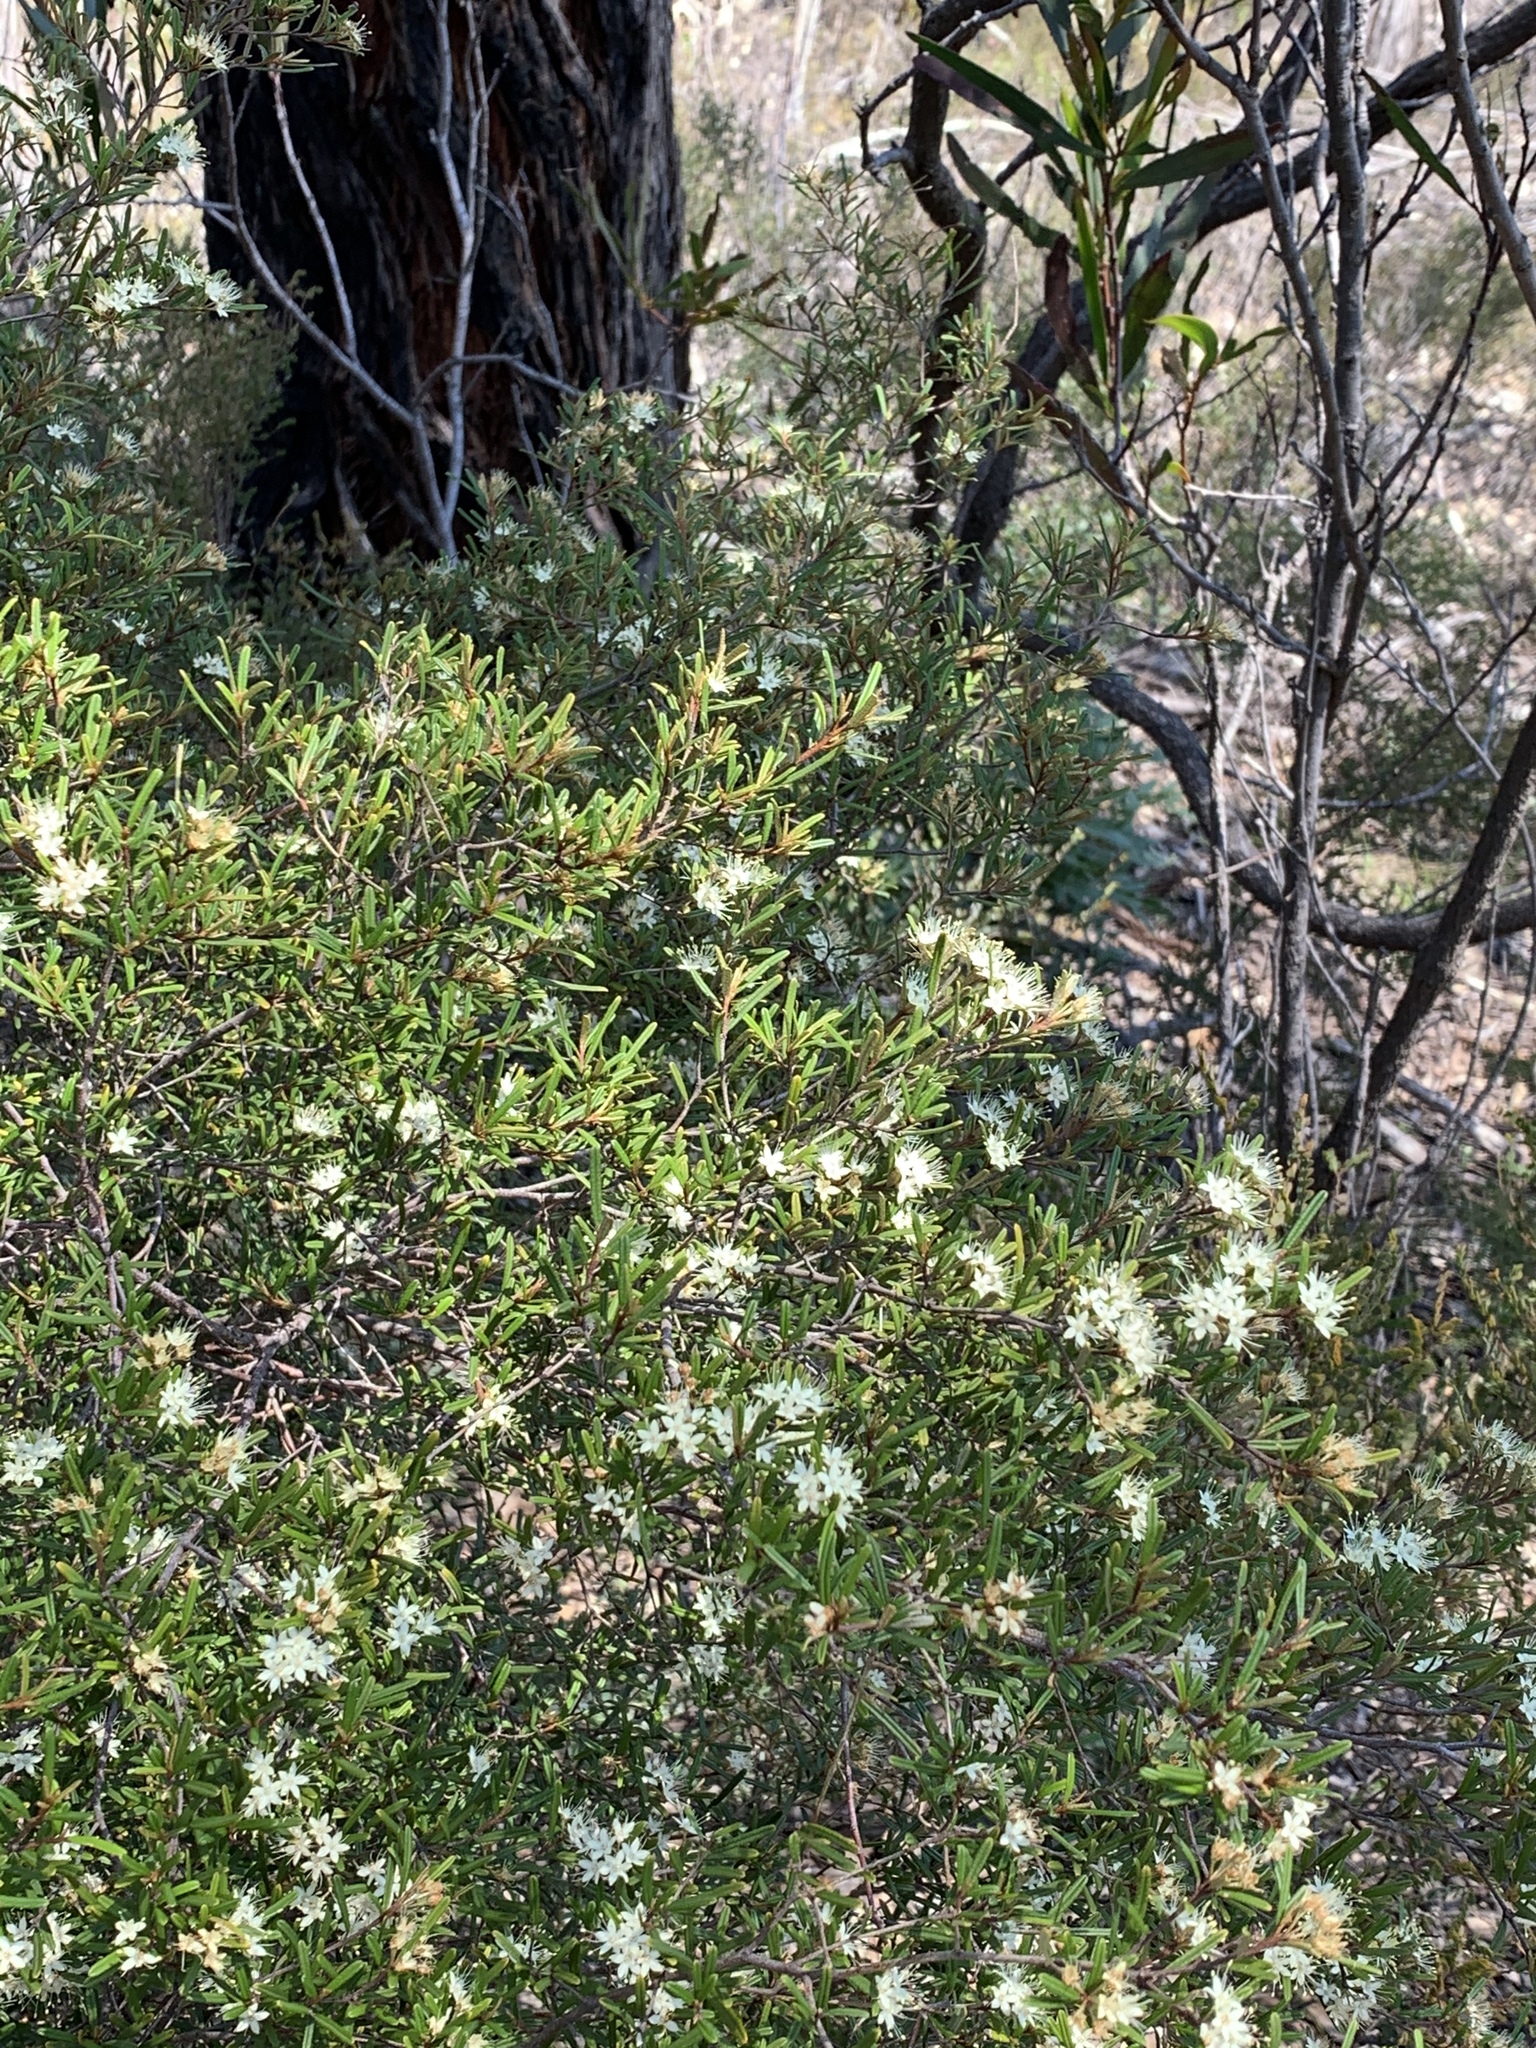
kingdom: Plantae
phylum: Tracheophyta
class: Magnoliopsida
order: Sapindales
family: Rutaceae
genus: Phebalium
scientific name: Phebalium squamulosum
